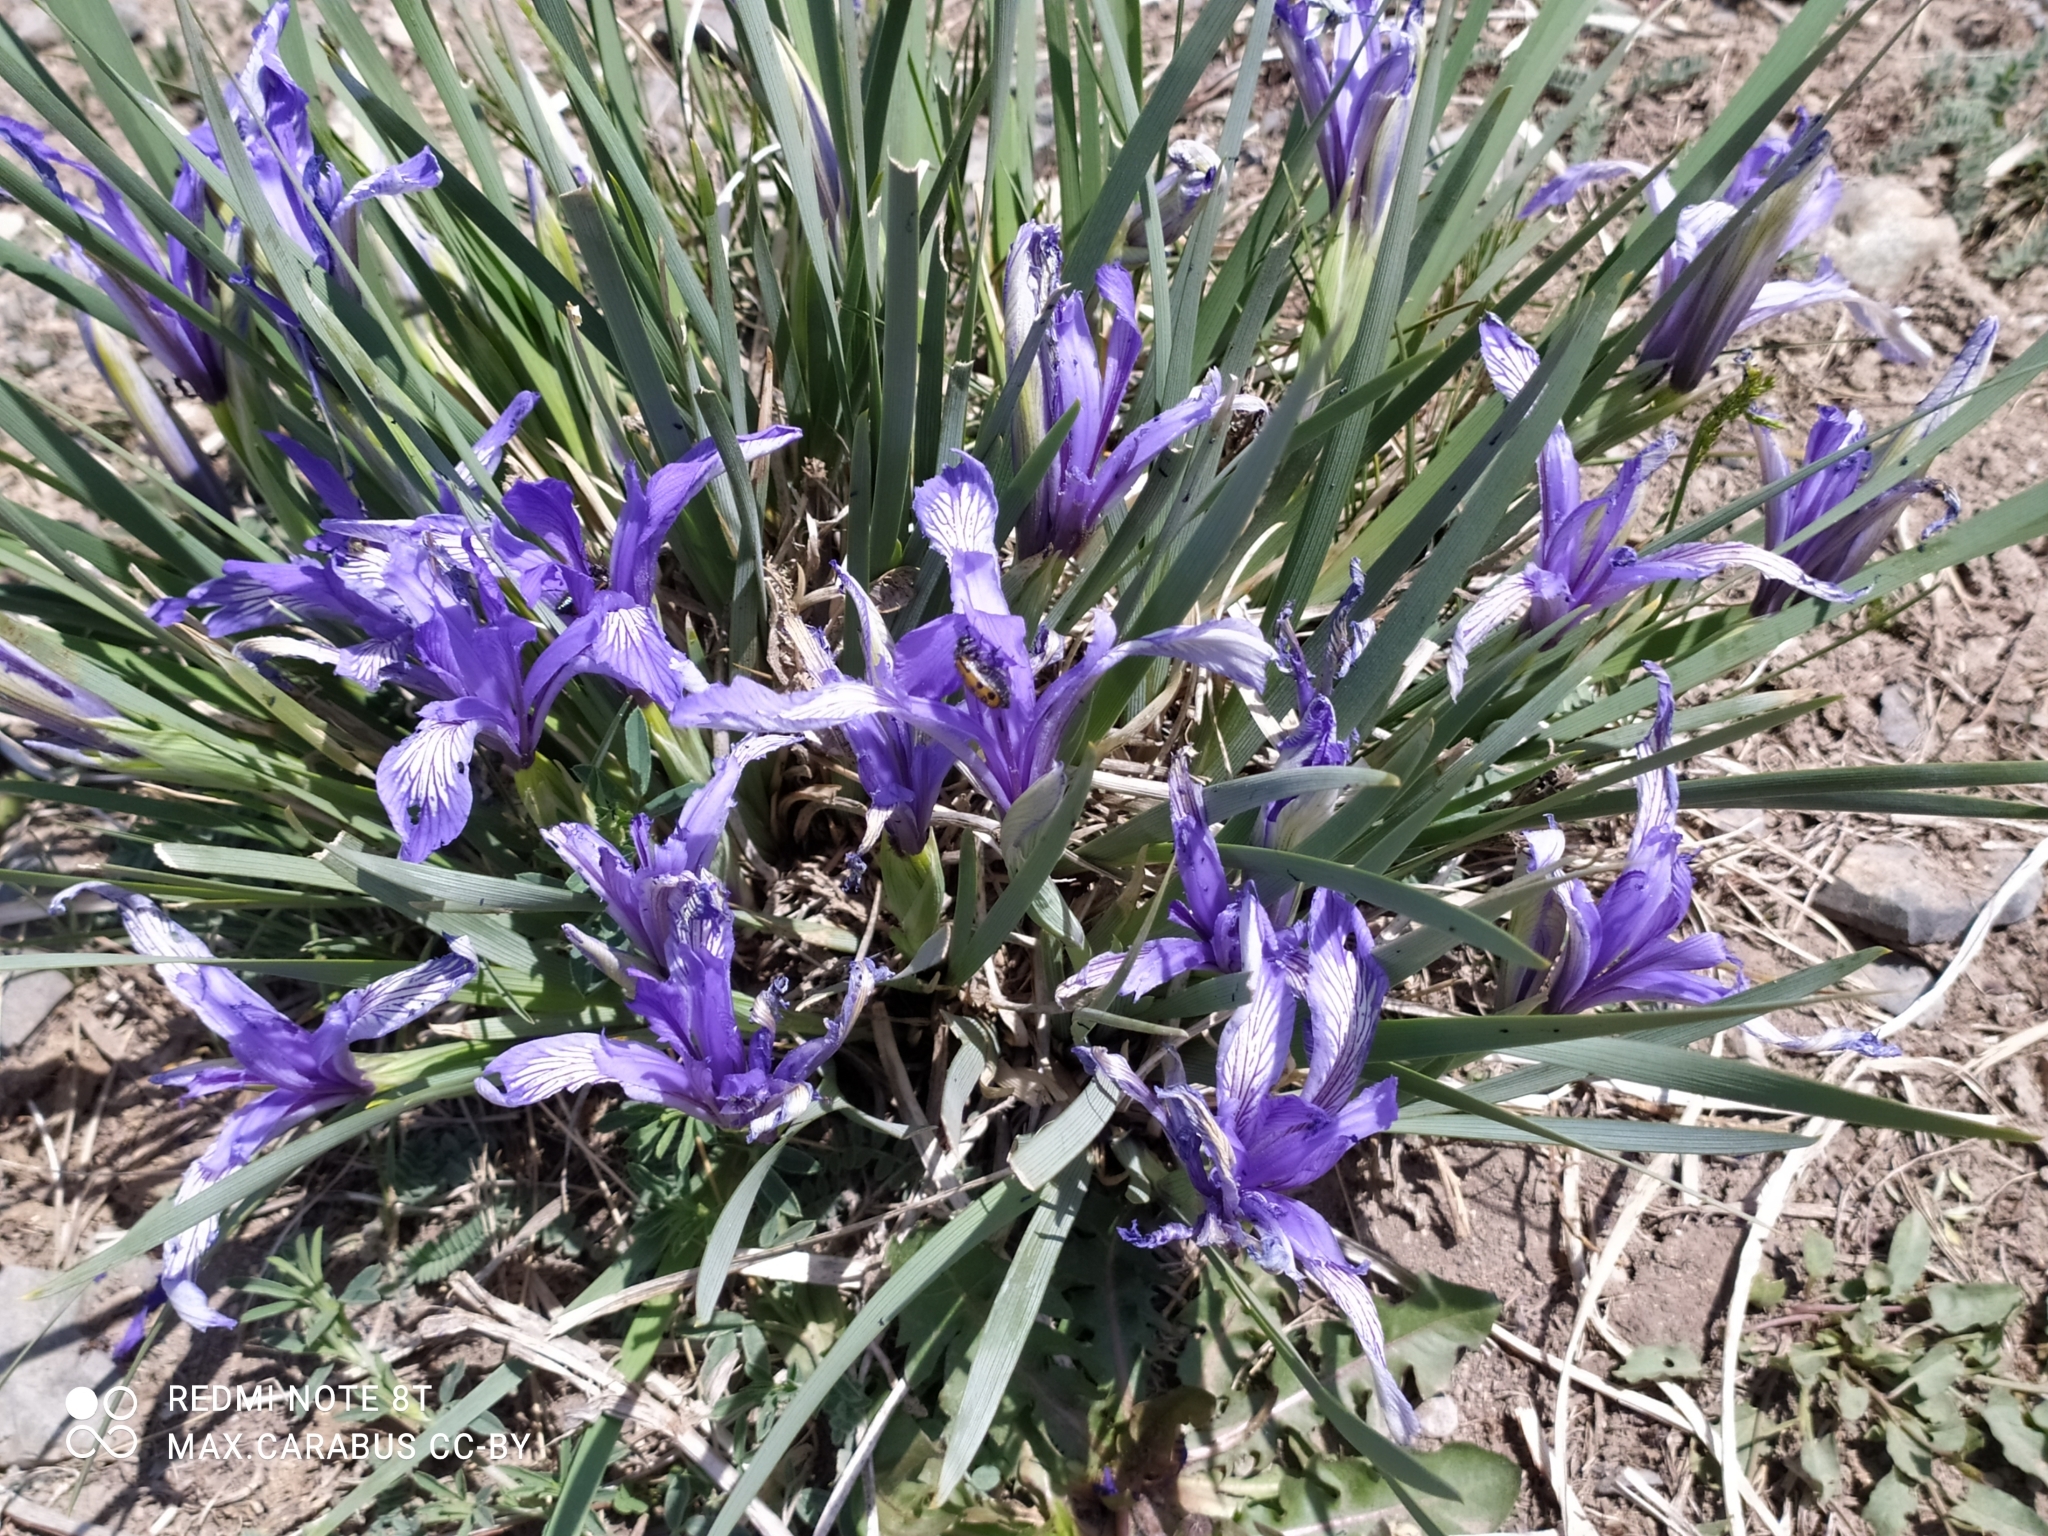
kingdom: Plantae
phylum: Tracheophyta
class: Liliopsida
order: Asparagales
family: Iridaceae
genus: Iris
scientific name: Iris lactea
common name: White-flower chinese iris
